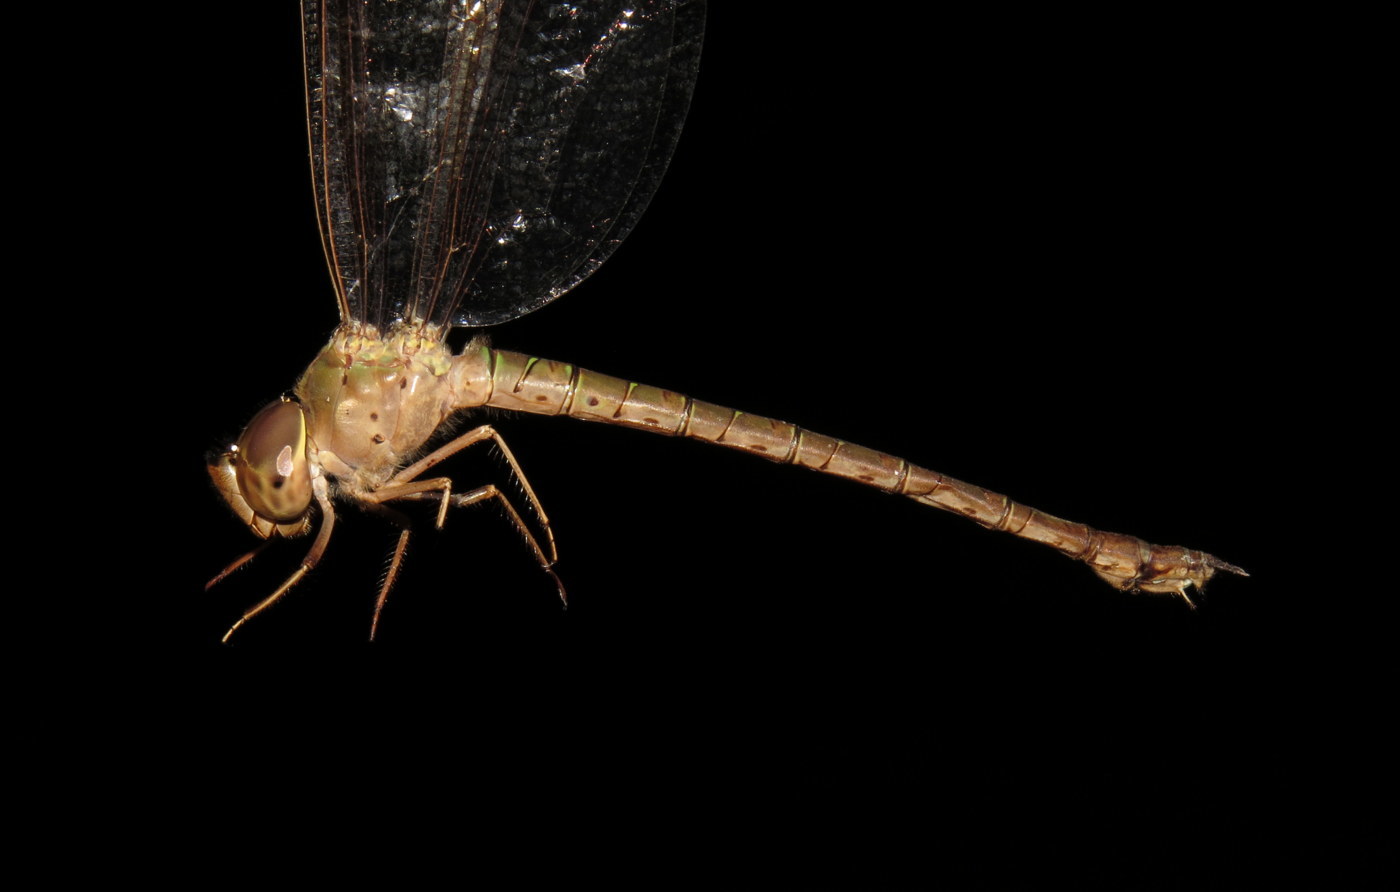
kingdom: Animalia
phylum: Arthropoda
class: Insecta
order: Odonata
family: Aeshnidae
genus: Gynacantha
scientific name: Gynacantha nervosa
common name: Twilight darner
